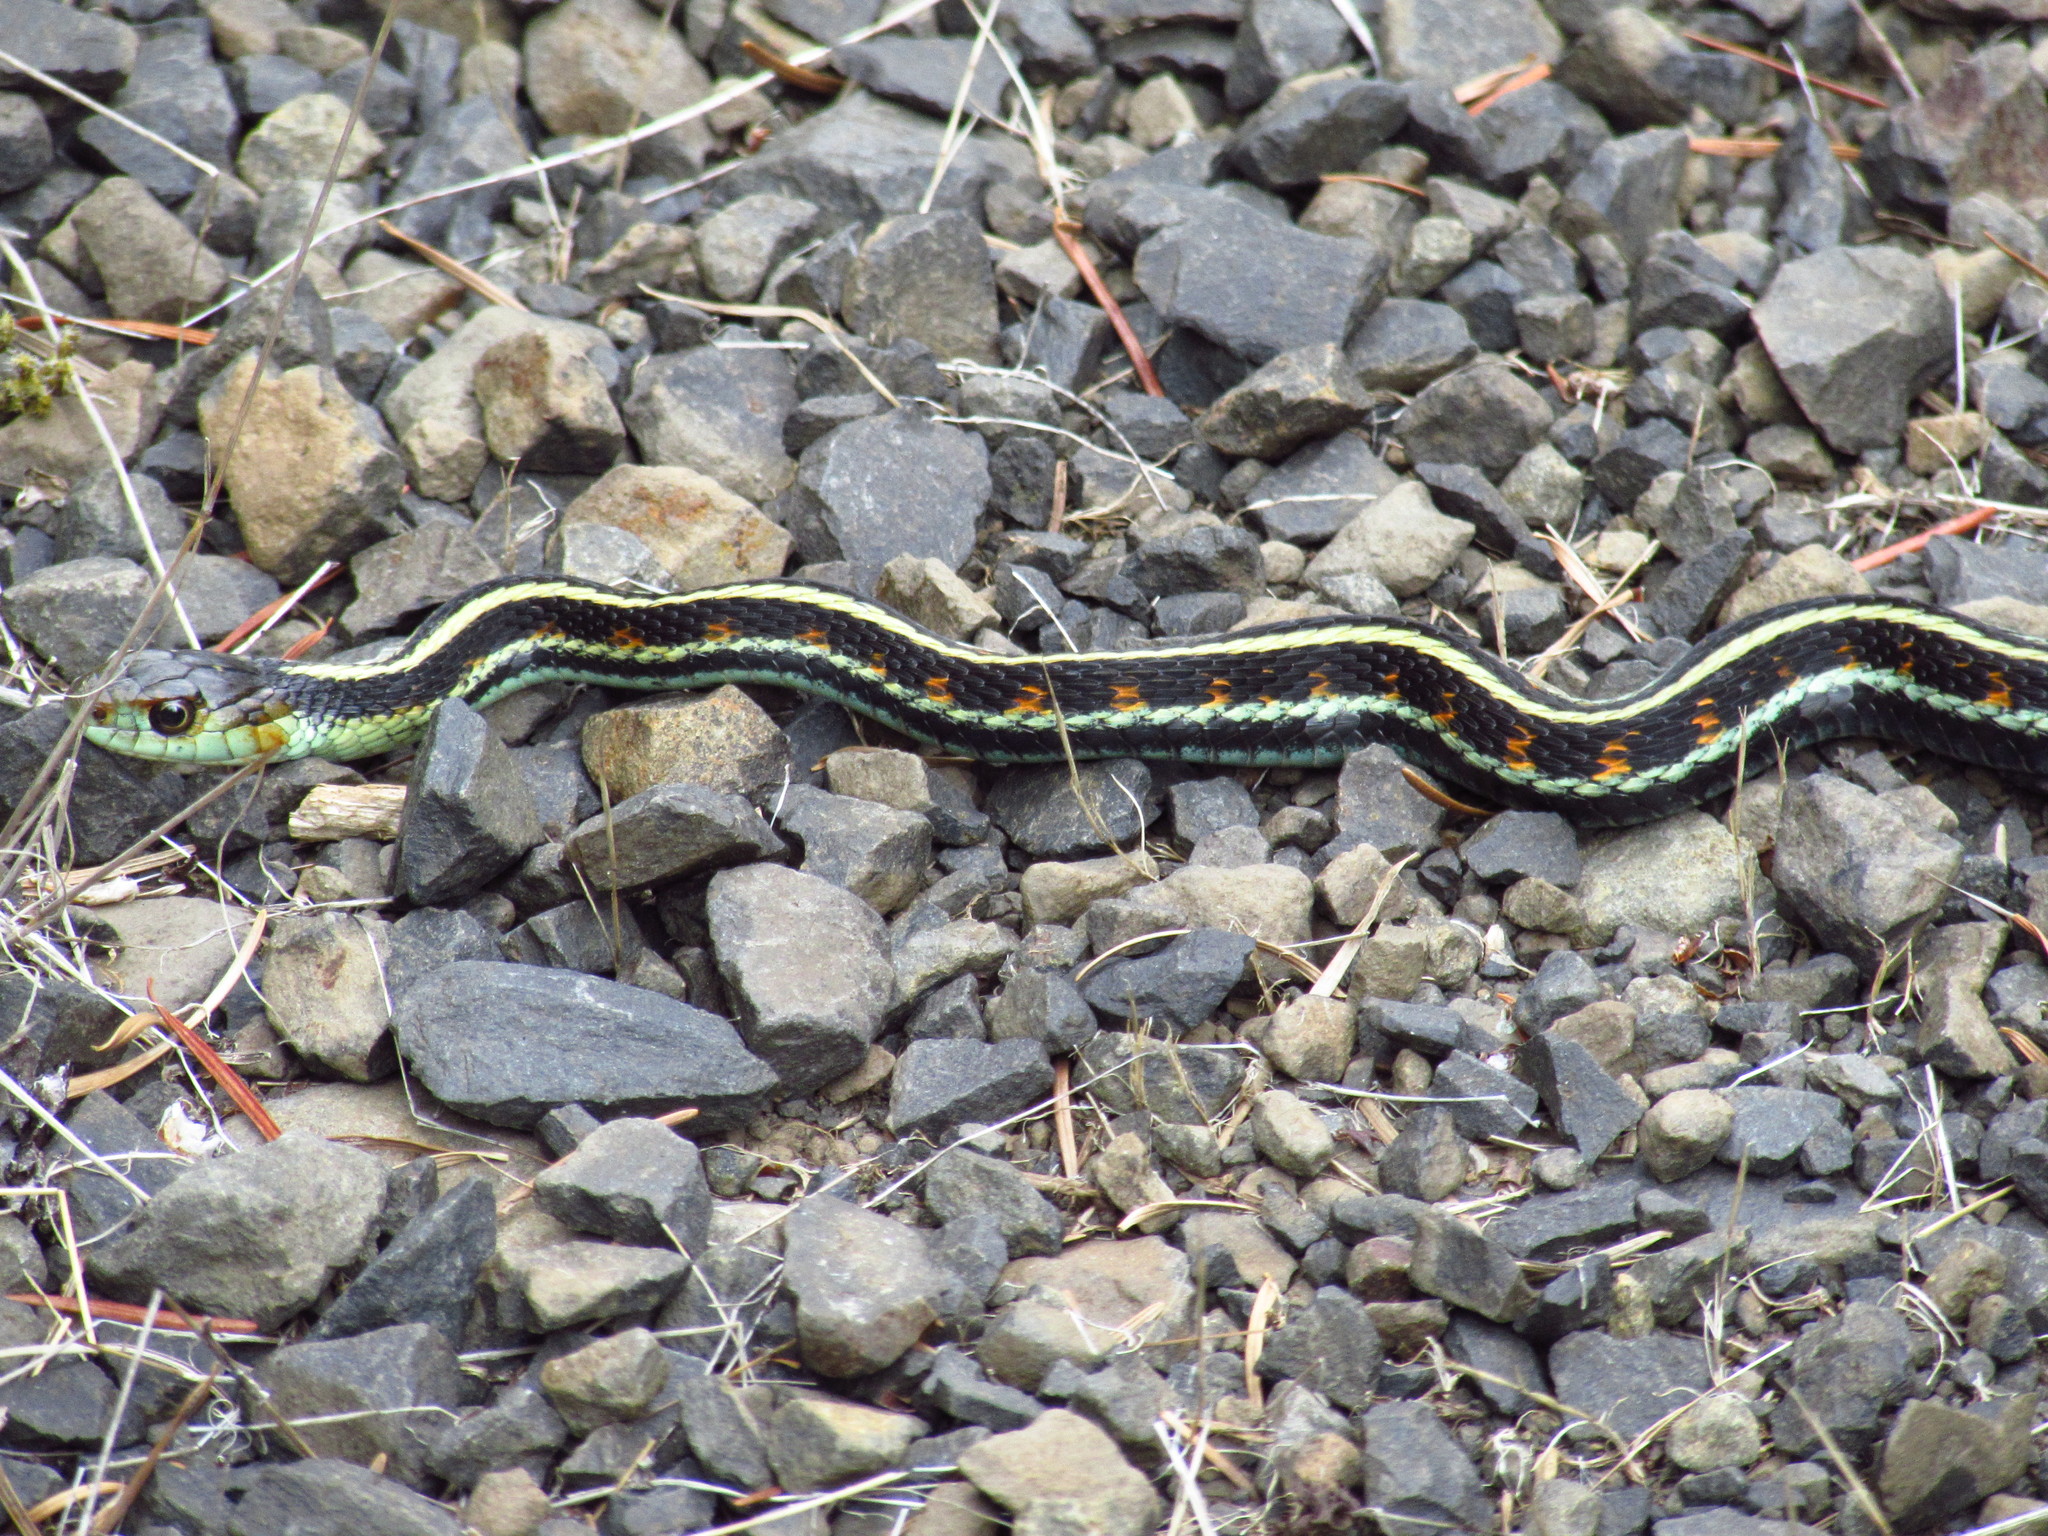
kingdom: Animalia
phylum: Chordata
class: Squamata
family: Colubridae
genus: Thamnophis
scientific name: Thamnophis sirtalis
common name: Common garter snake
